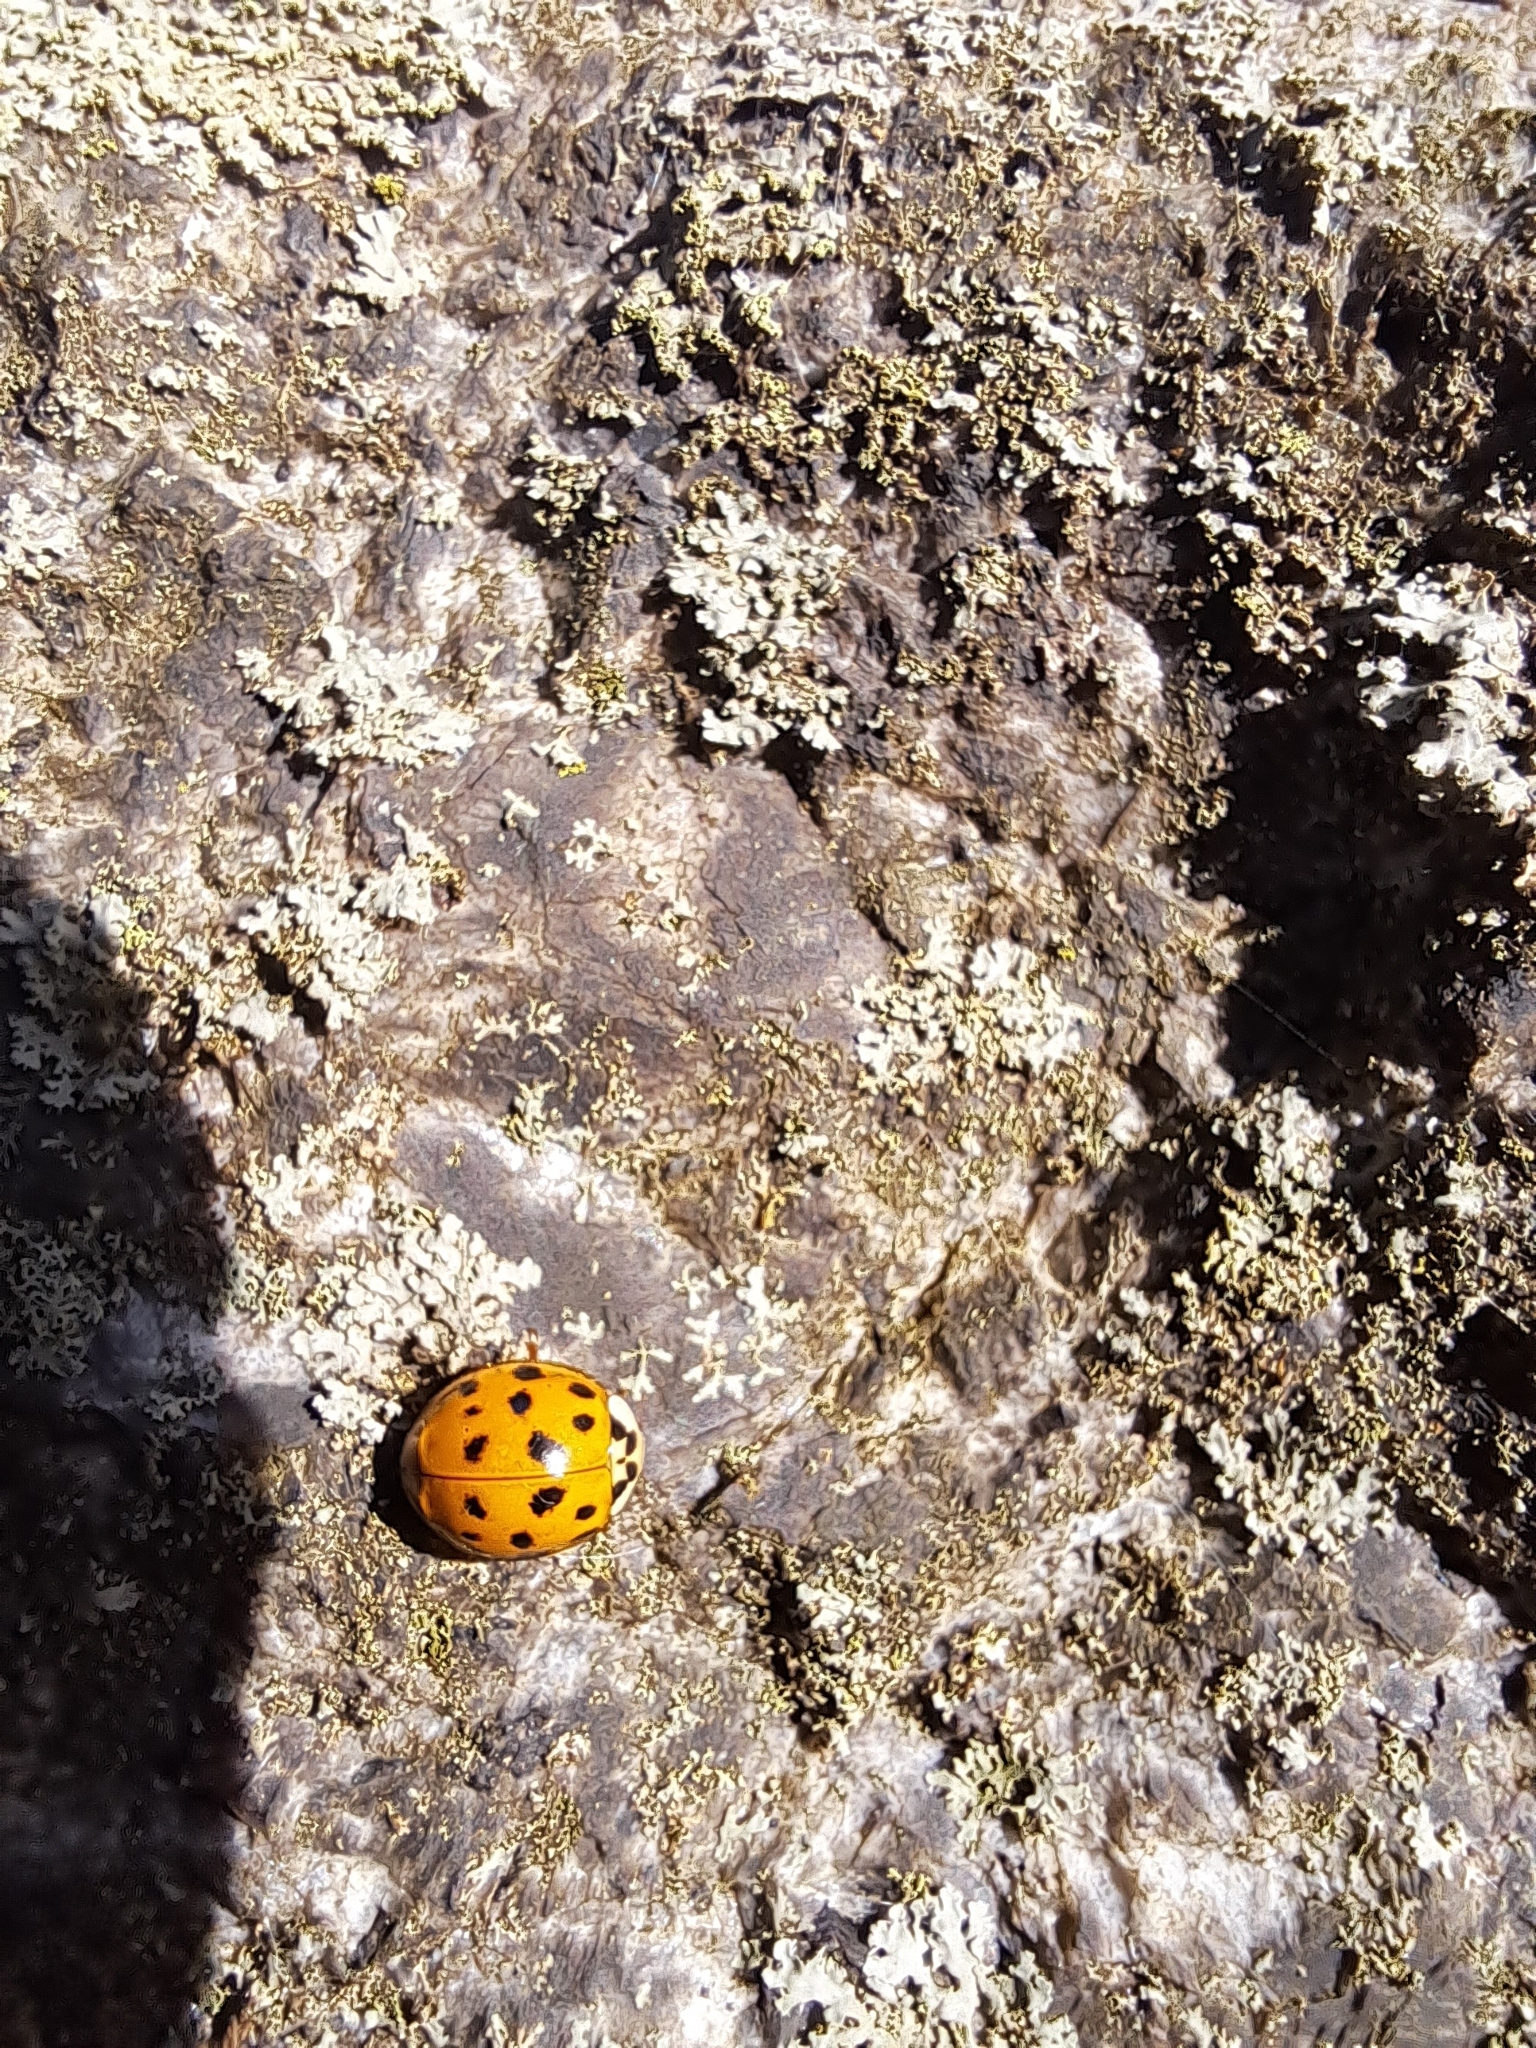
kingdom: Animalia
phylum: Arthropoda
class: Insecta
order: Coleoptera
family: Coccinellidae
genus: Harmonia
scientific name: Harmonia axyridis
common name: Harlequin ladybird
